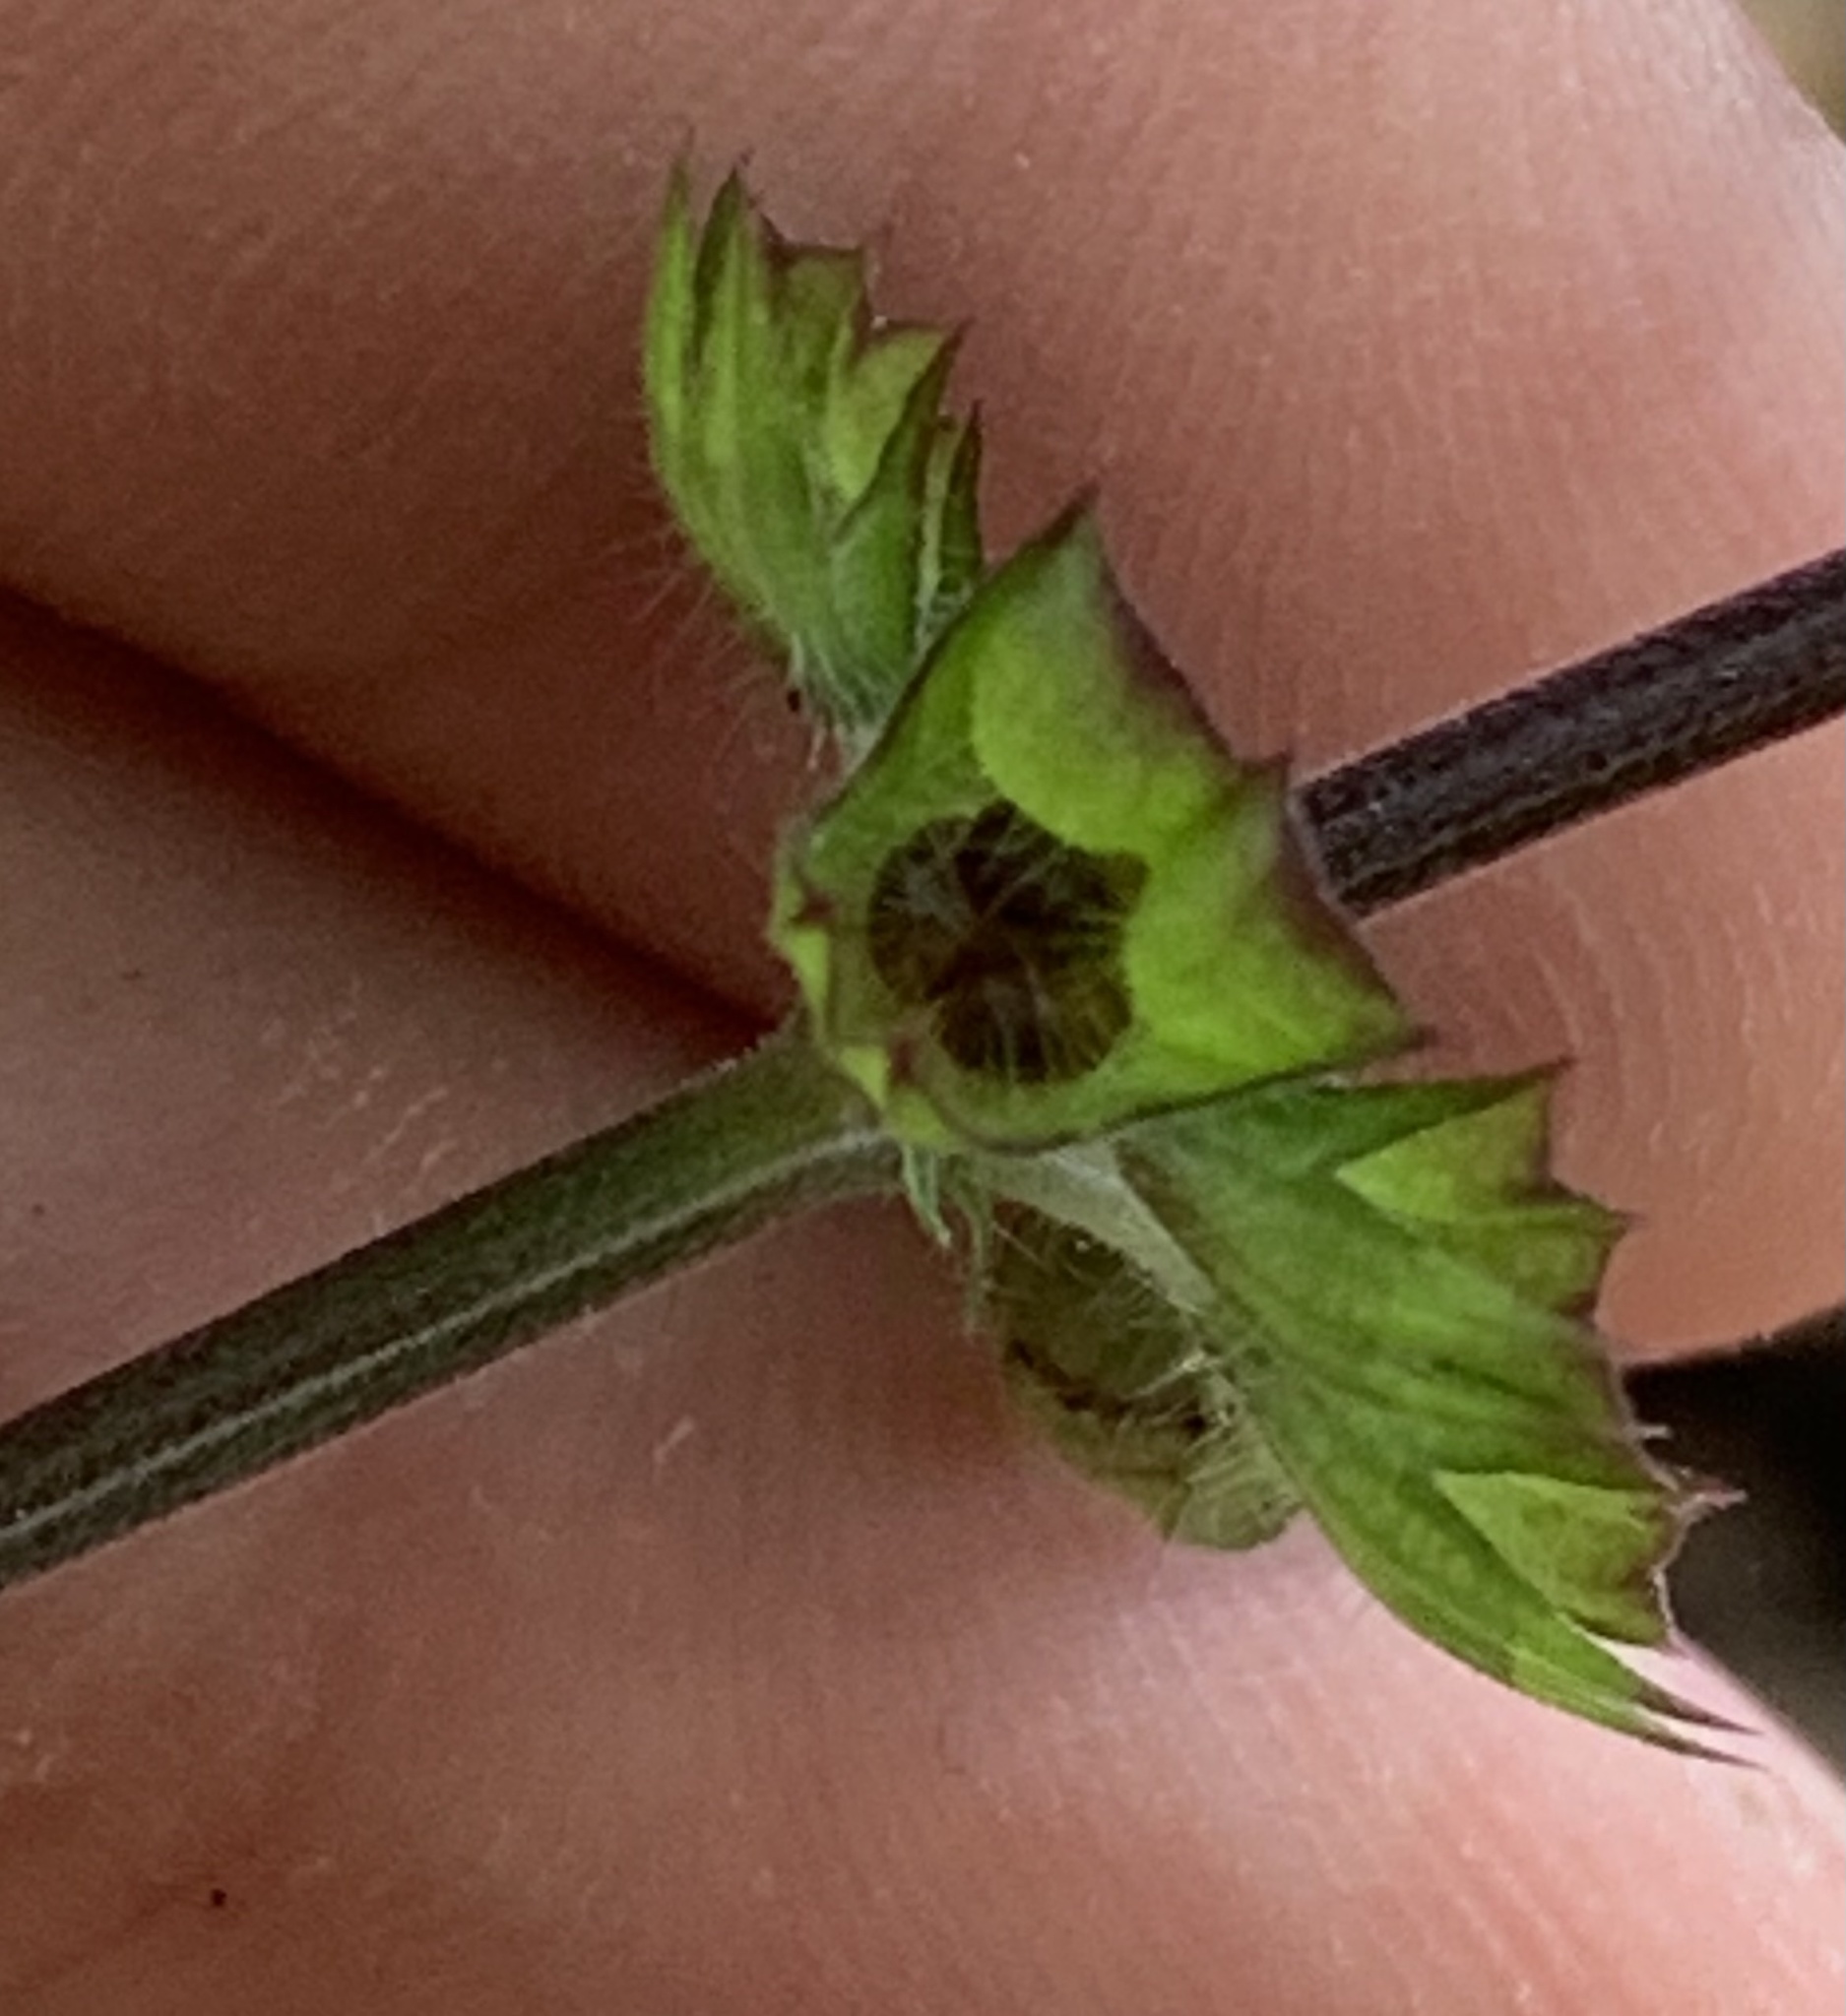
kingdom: Plantae
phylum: Tracheophyta
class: Magnoliopsida
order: Lamiales
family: Lamiaceae
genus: Salvia
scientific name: Salvia lyrata
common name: Cancerweed
